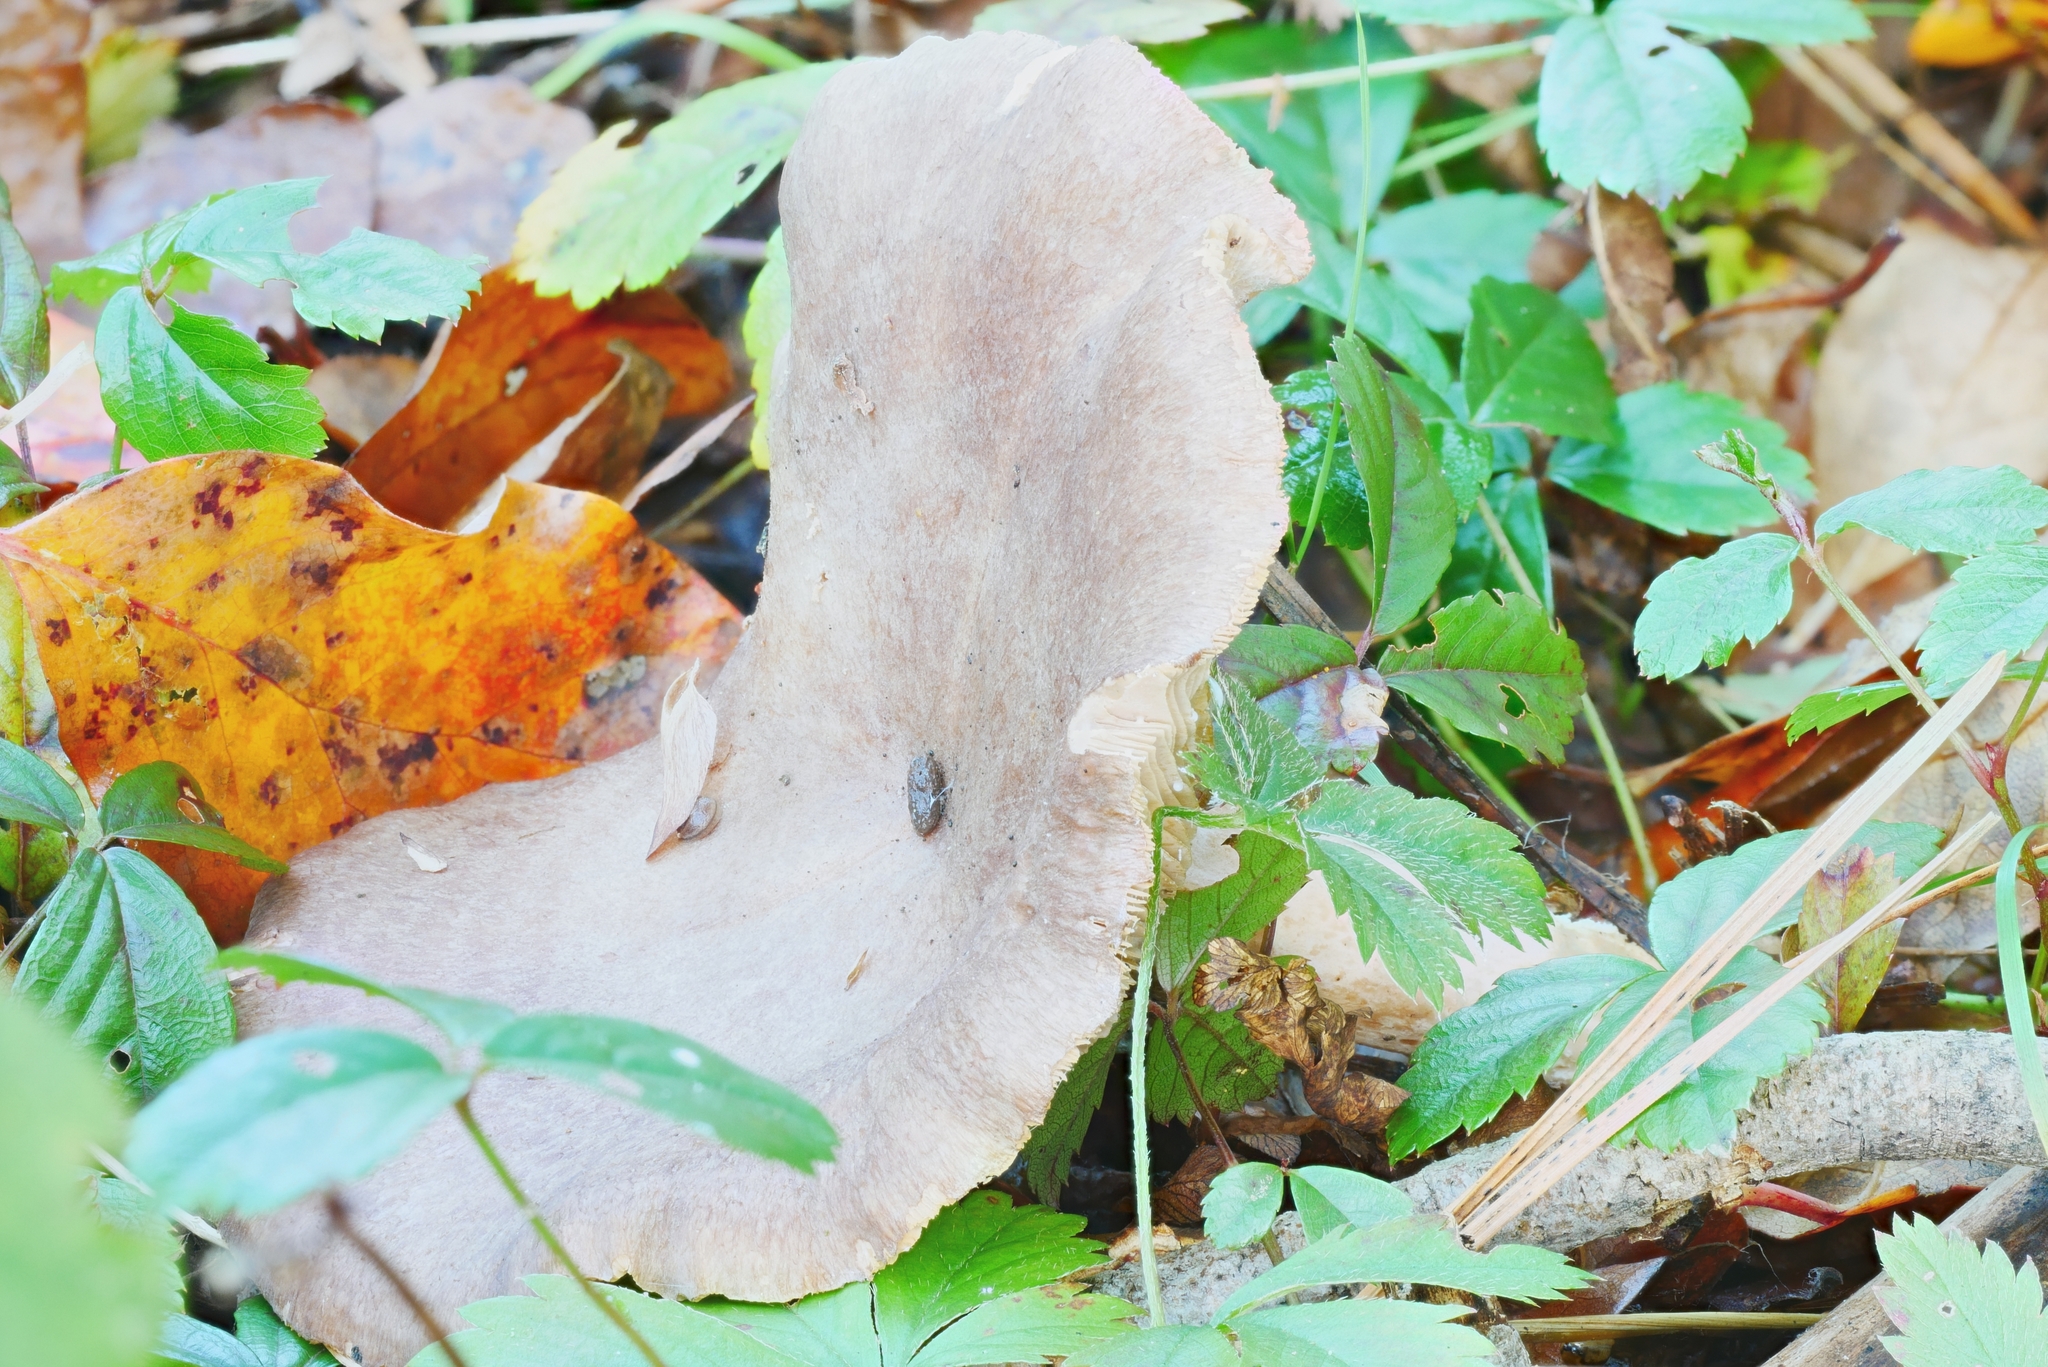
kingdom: Fungi
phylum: Basidiomycota
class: Agaricomycetes
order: Russulales
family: Russulaceae
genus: Lactarius
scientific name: Lactarius argillaceifolius
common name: Clay-gilled milkcap
